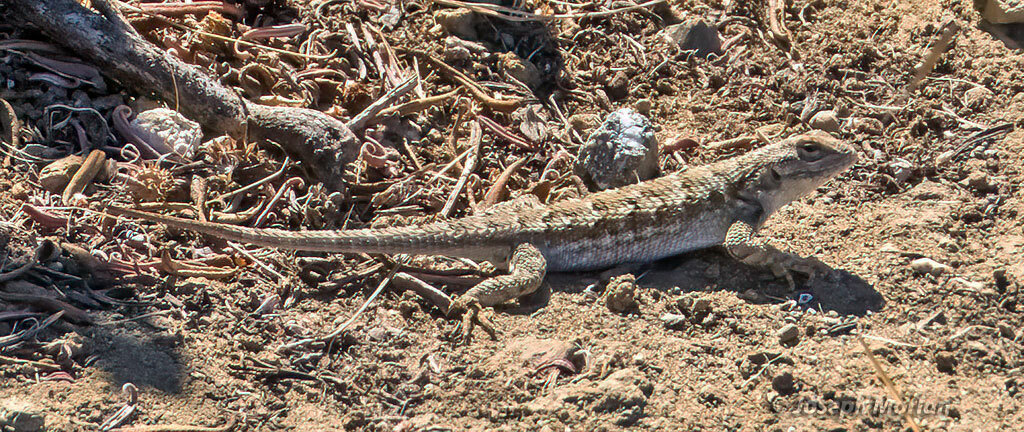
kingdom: Animalia
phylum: Chordata
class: Squamata
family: Phrynosomatidae
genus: Sceloporus
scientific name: Sceloporus occidentalis
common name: Western fence lizard
